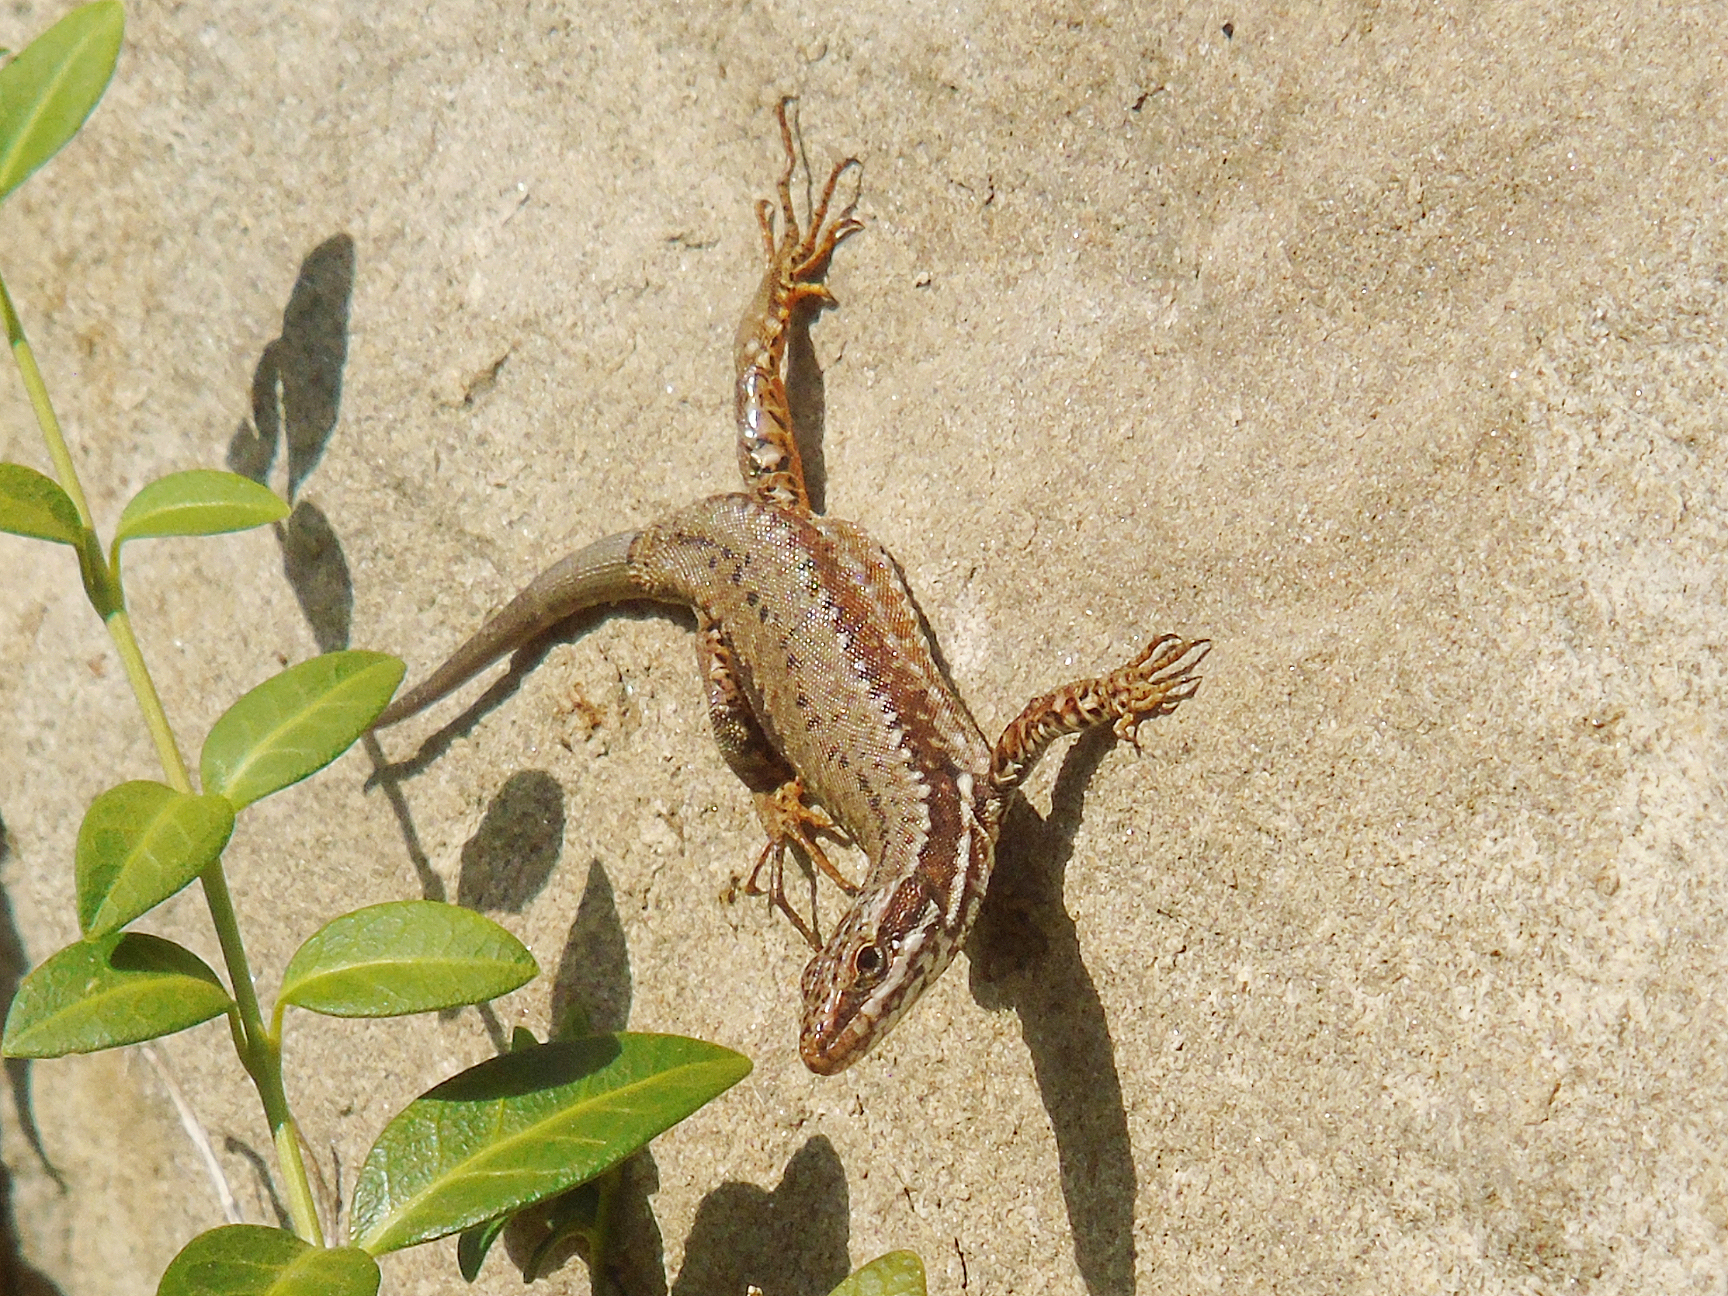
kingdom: Animalia
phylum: Chordata
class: Squamata
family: Lacertidae
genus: Podarcis
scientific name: Podarcis muralis
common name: Common wall lizard
